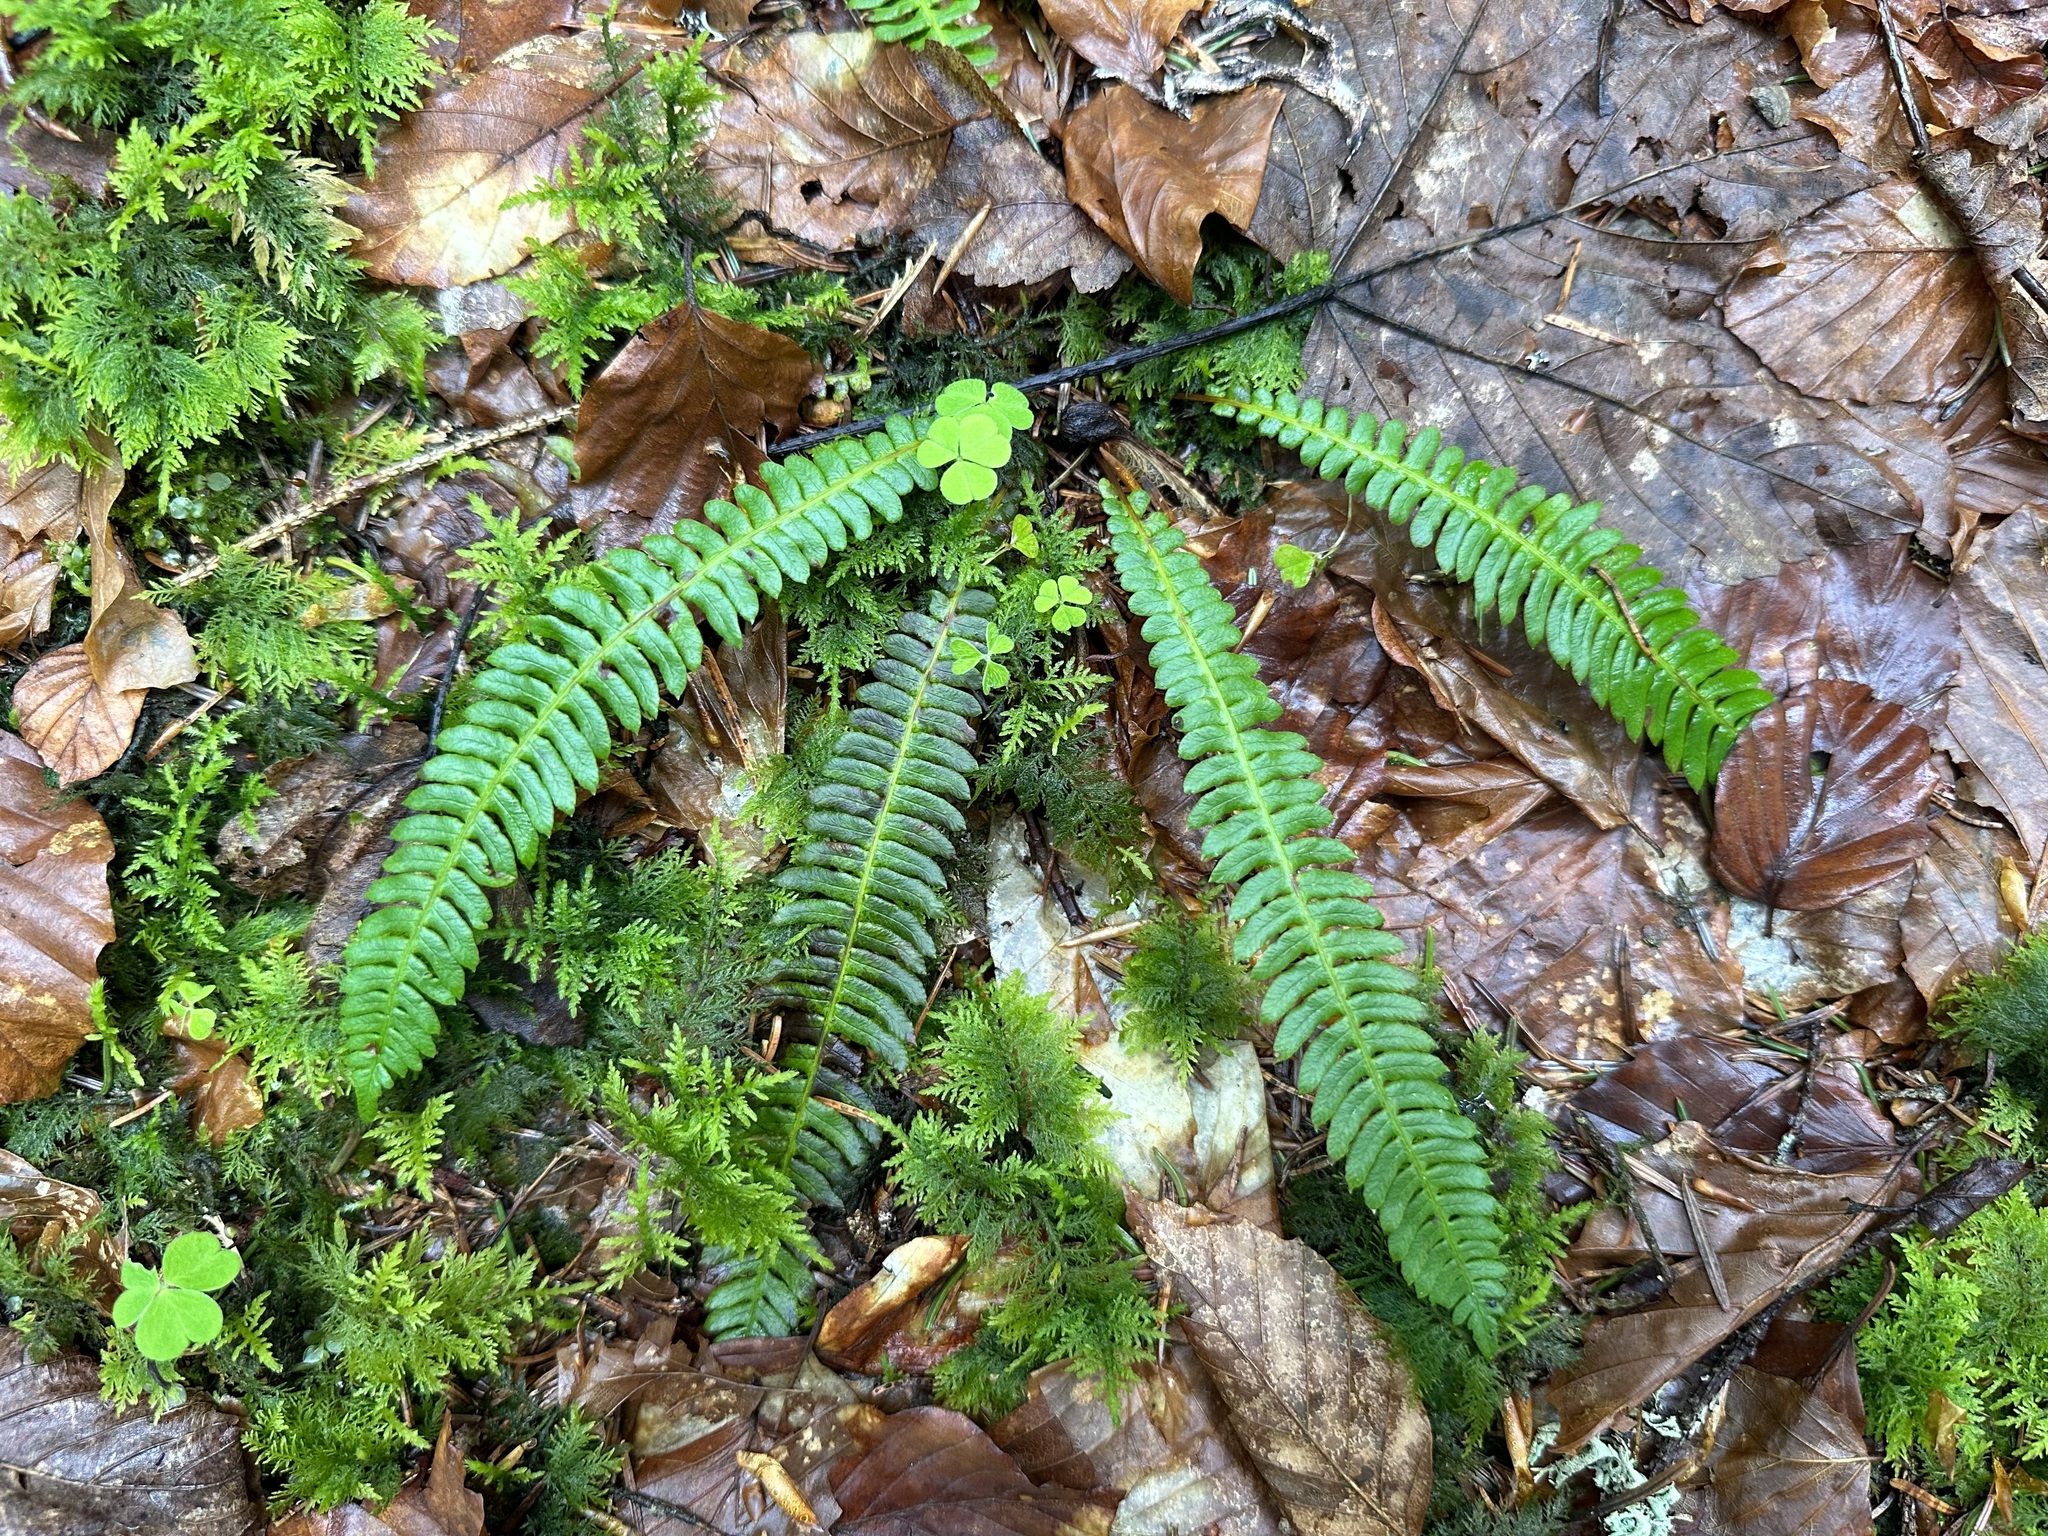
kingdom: Plantae
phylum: Tracheophyta
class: Polypodiopsida
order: Polypodiales
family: Blechnaceae
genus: Struthiopteris
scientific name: Struthiopteris spicant
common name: Deer fern
